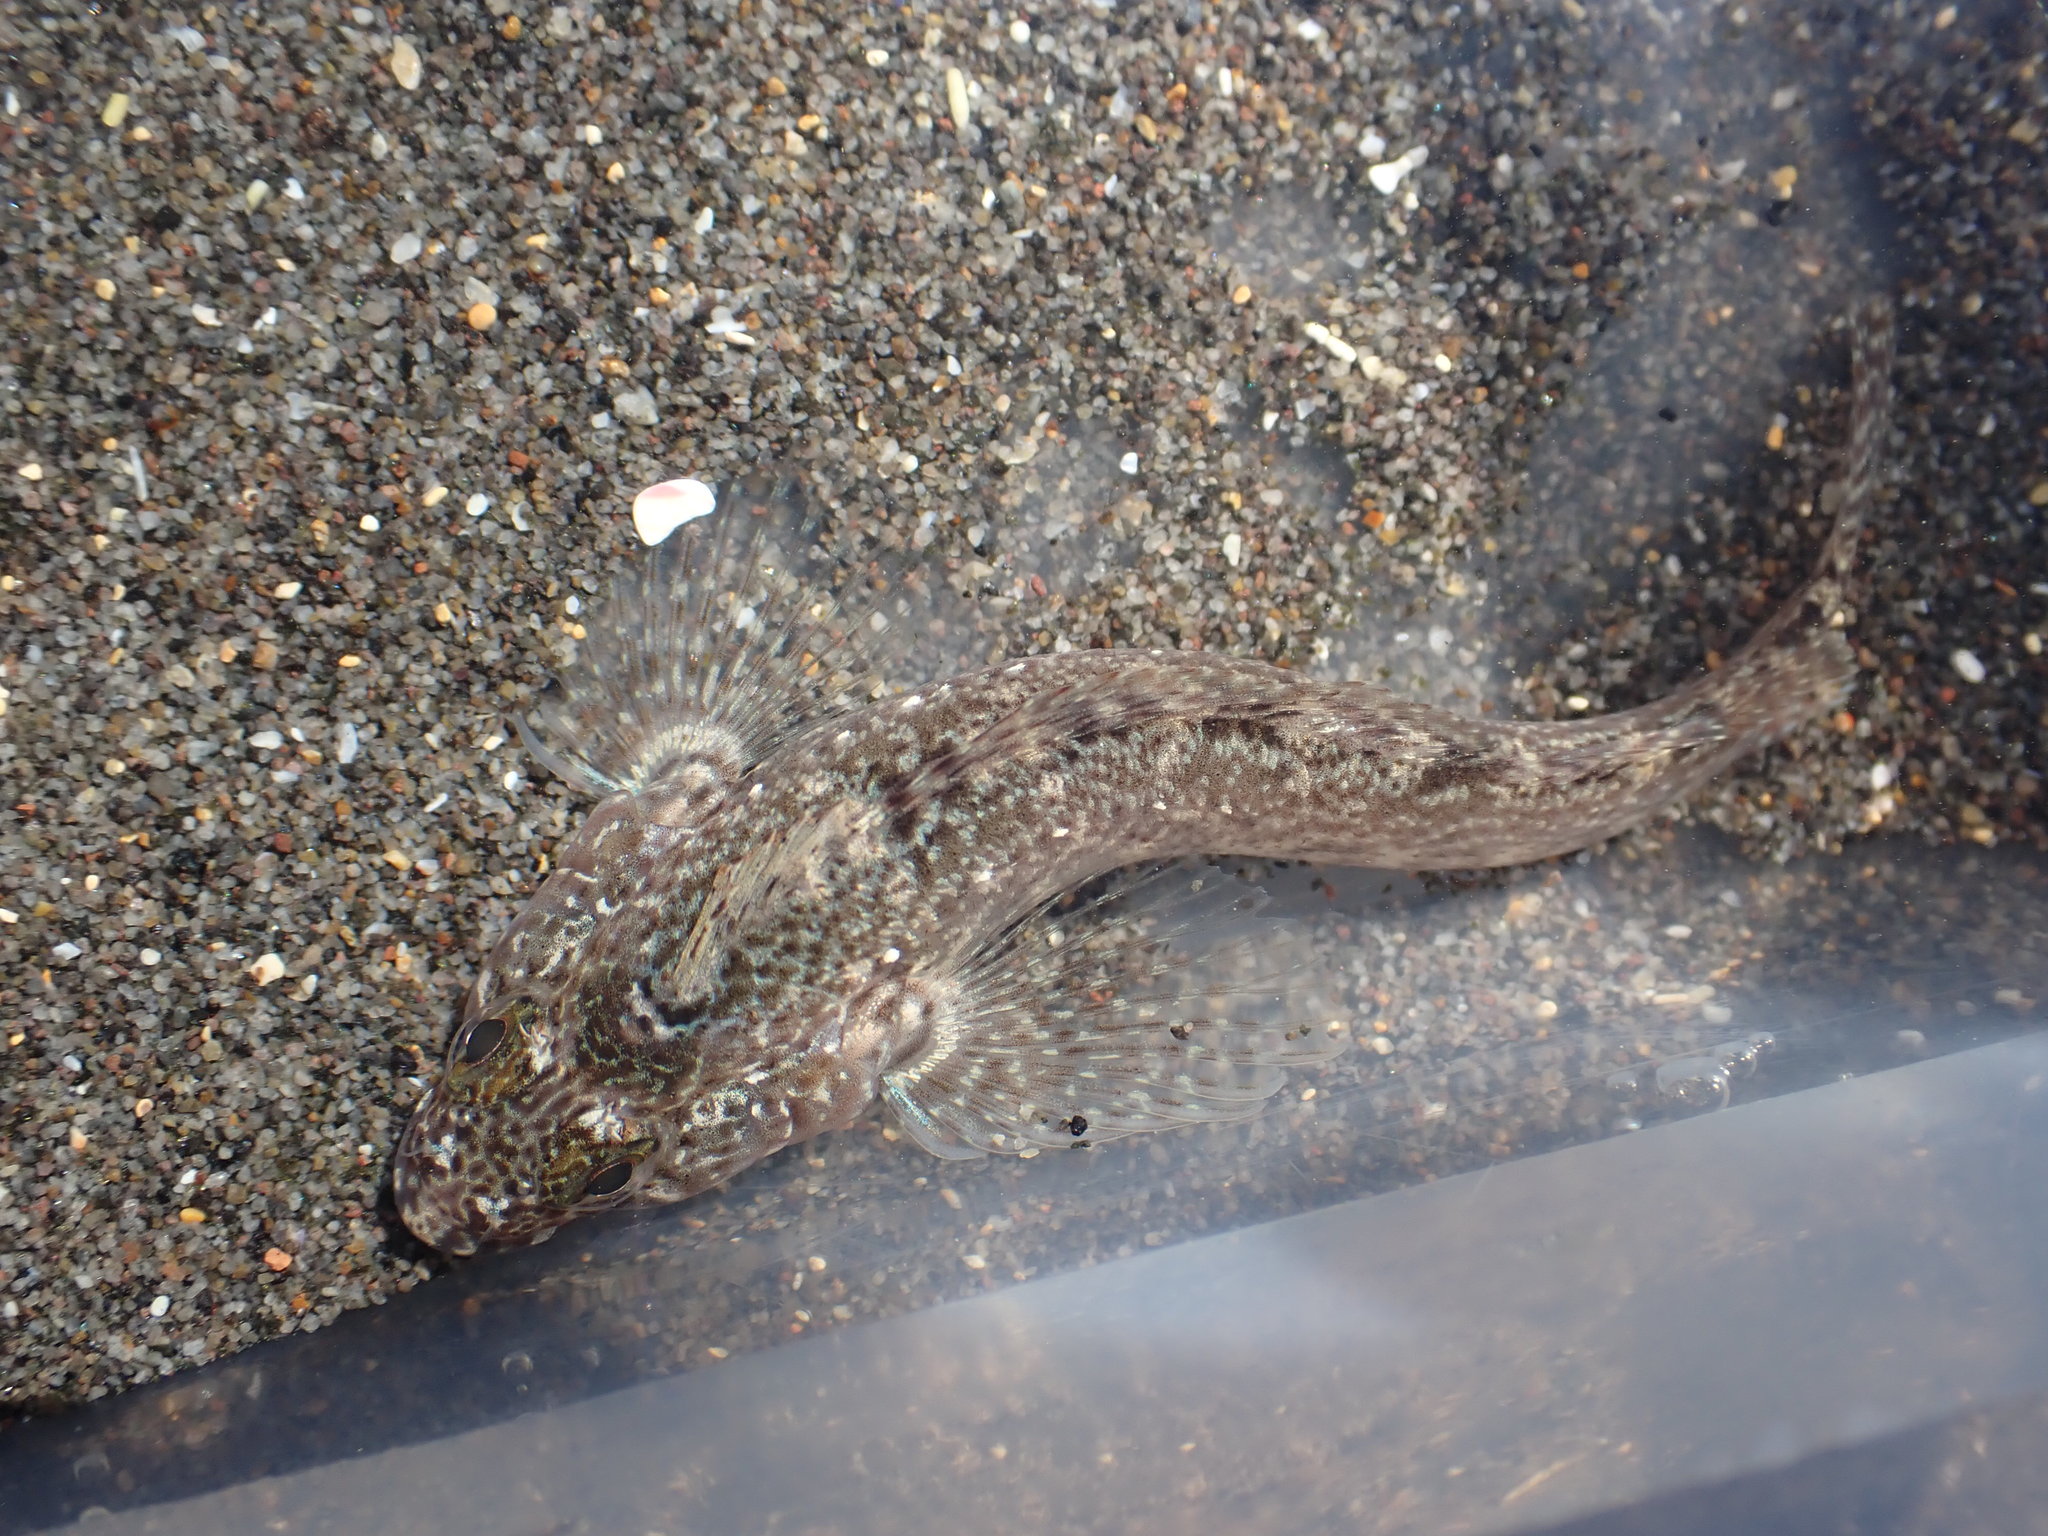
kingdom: Animalia
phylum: Chordata
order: Perciformes
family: Tripterygiidae
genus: Forsterygion
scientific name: Forsterygion gymnotum
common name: Multifid-tentacled robust triplefin
